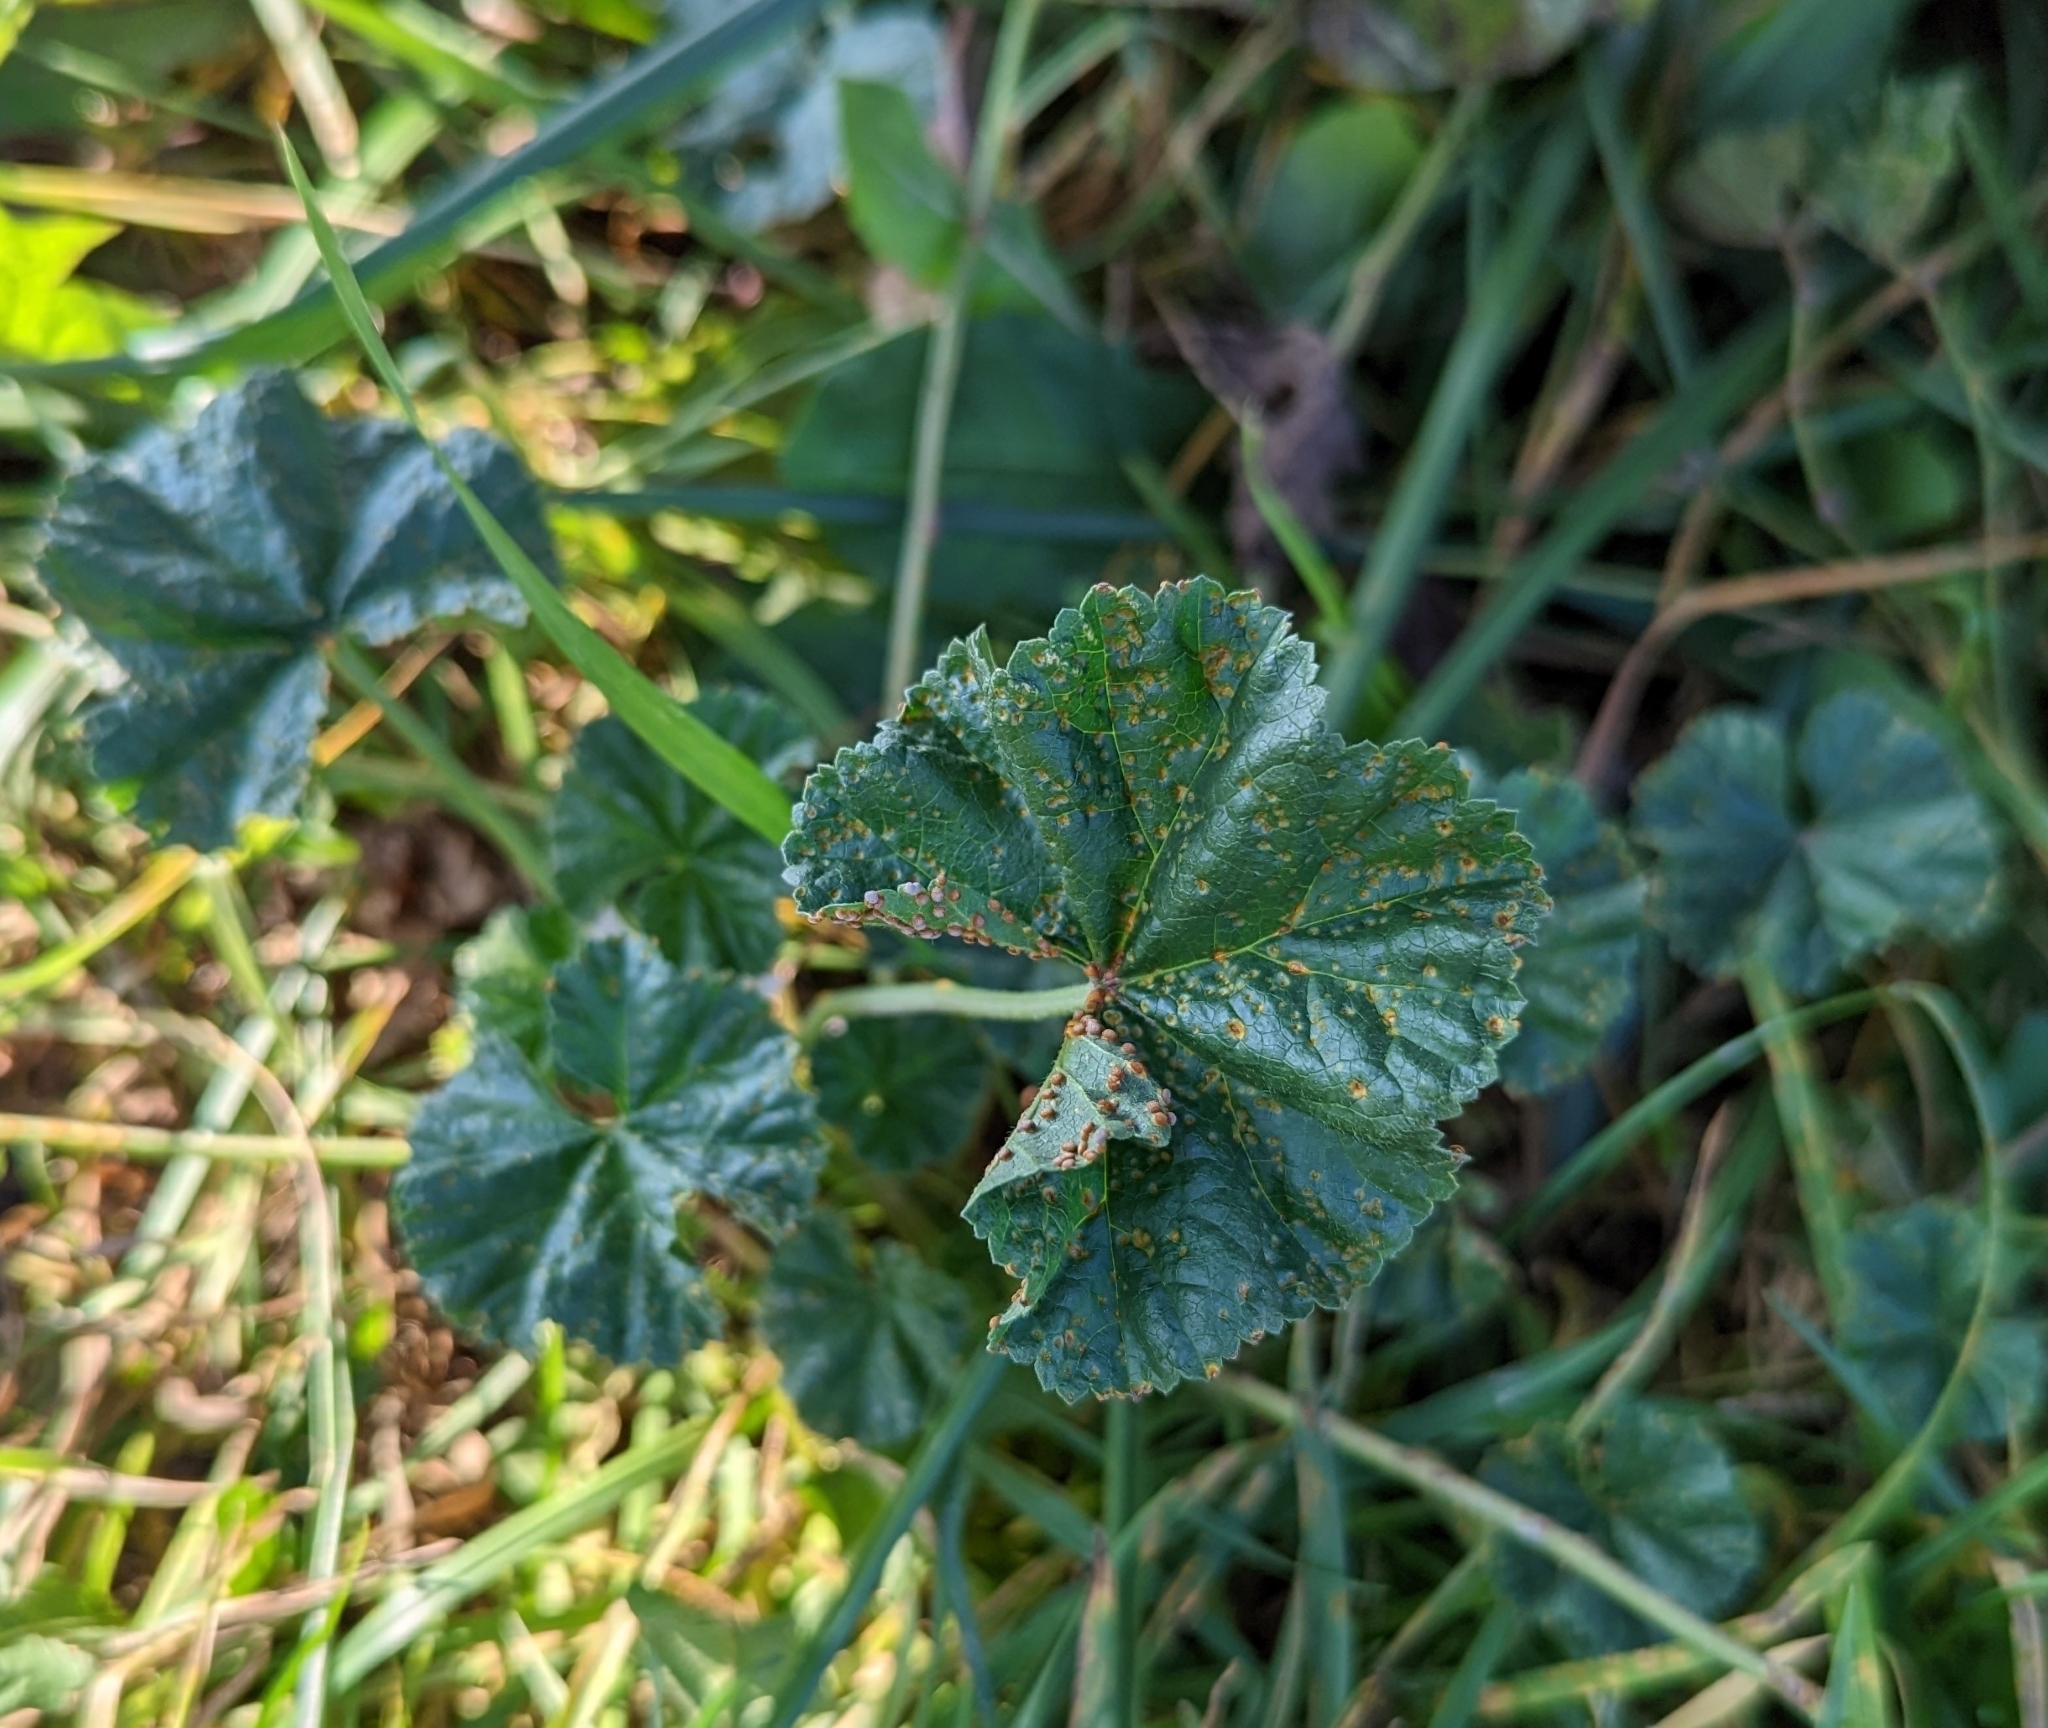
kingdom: Fungi
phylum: Basidiomycota
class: Pucciniomycetes
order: Pucciniales
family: Pucciniaceae
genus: Puccinia
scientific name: Puccinia malvacearum
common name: Hollyhock rust
